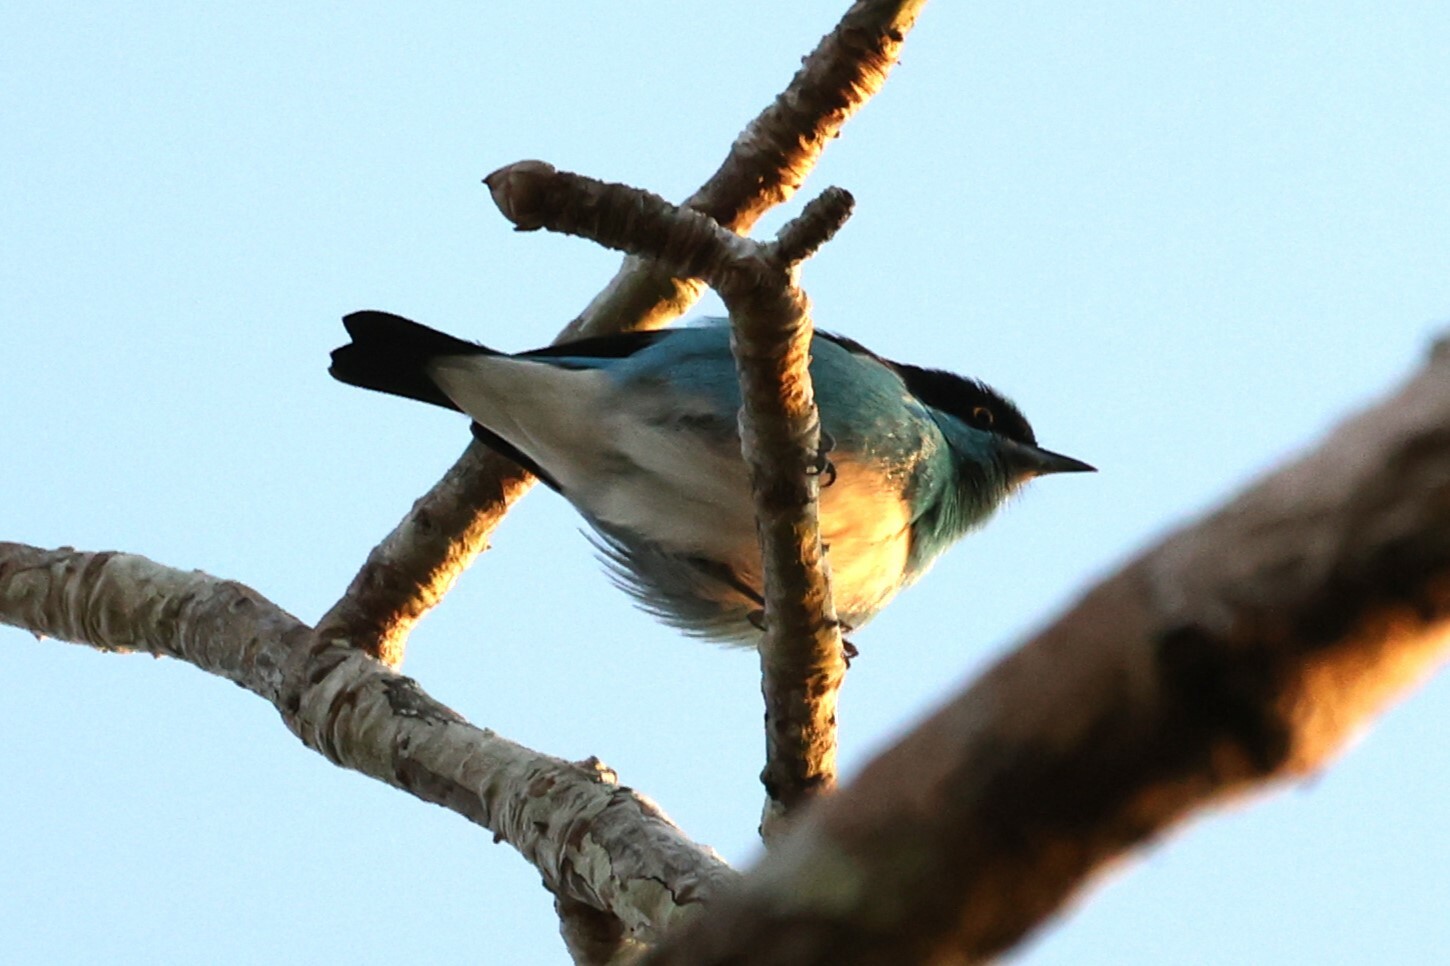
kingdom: Animalia
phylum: Chordata
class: Aves
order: Passeriformes
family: Thraupidae
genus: Dacnis
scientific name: Dacnis lineata
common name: Black-faced dacnis
